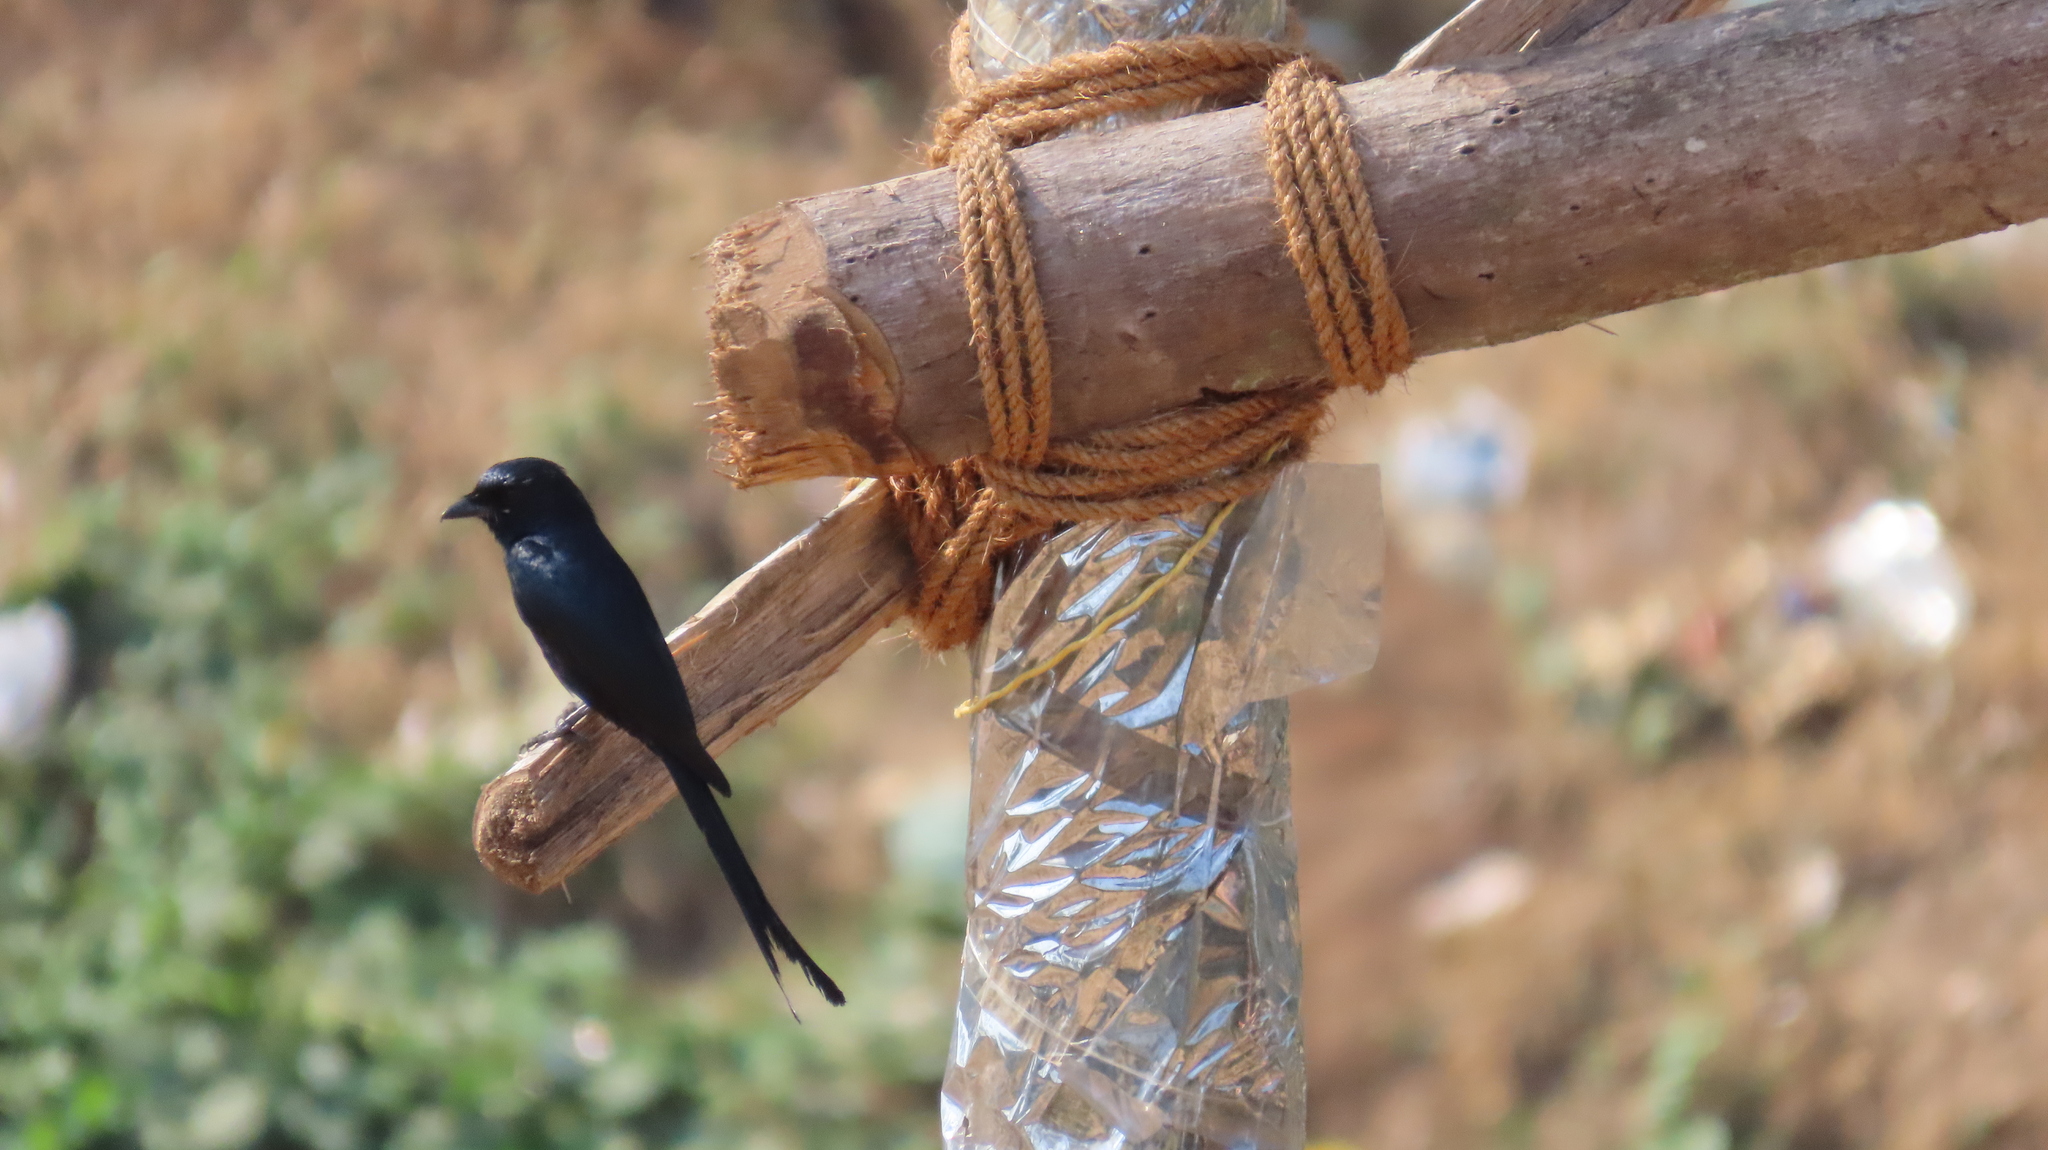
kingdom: Animalia
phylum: Chordata
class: Aves
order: Passeriformes
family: Dicruridae
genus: Dicrurus
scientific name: Dicrurus macrocercus
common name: Black drongo
